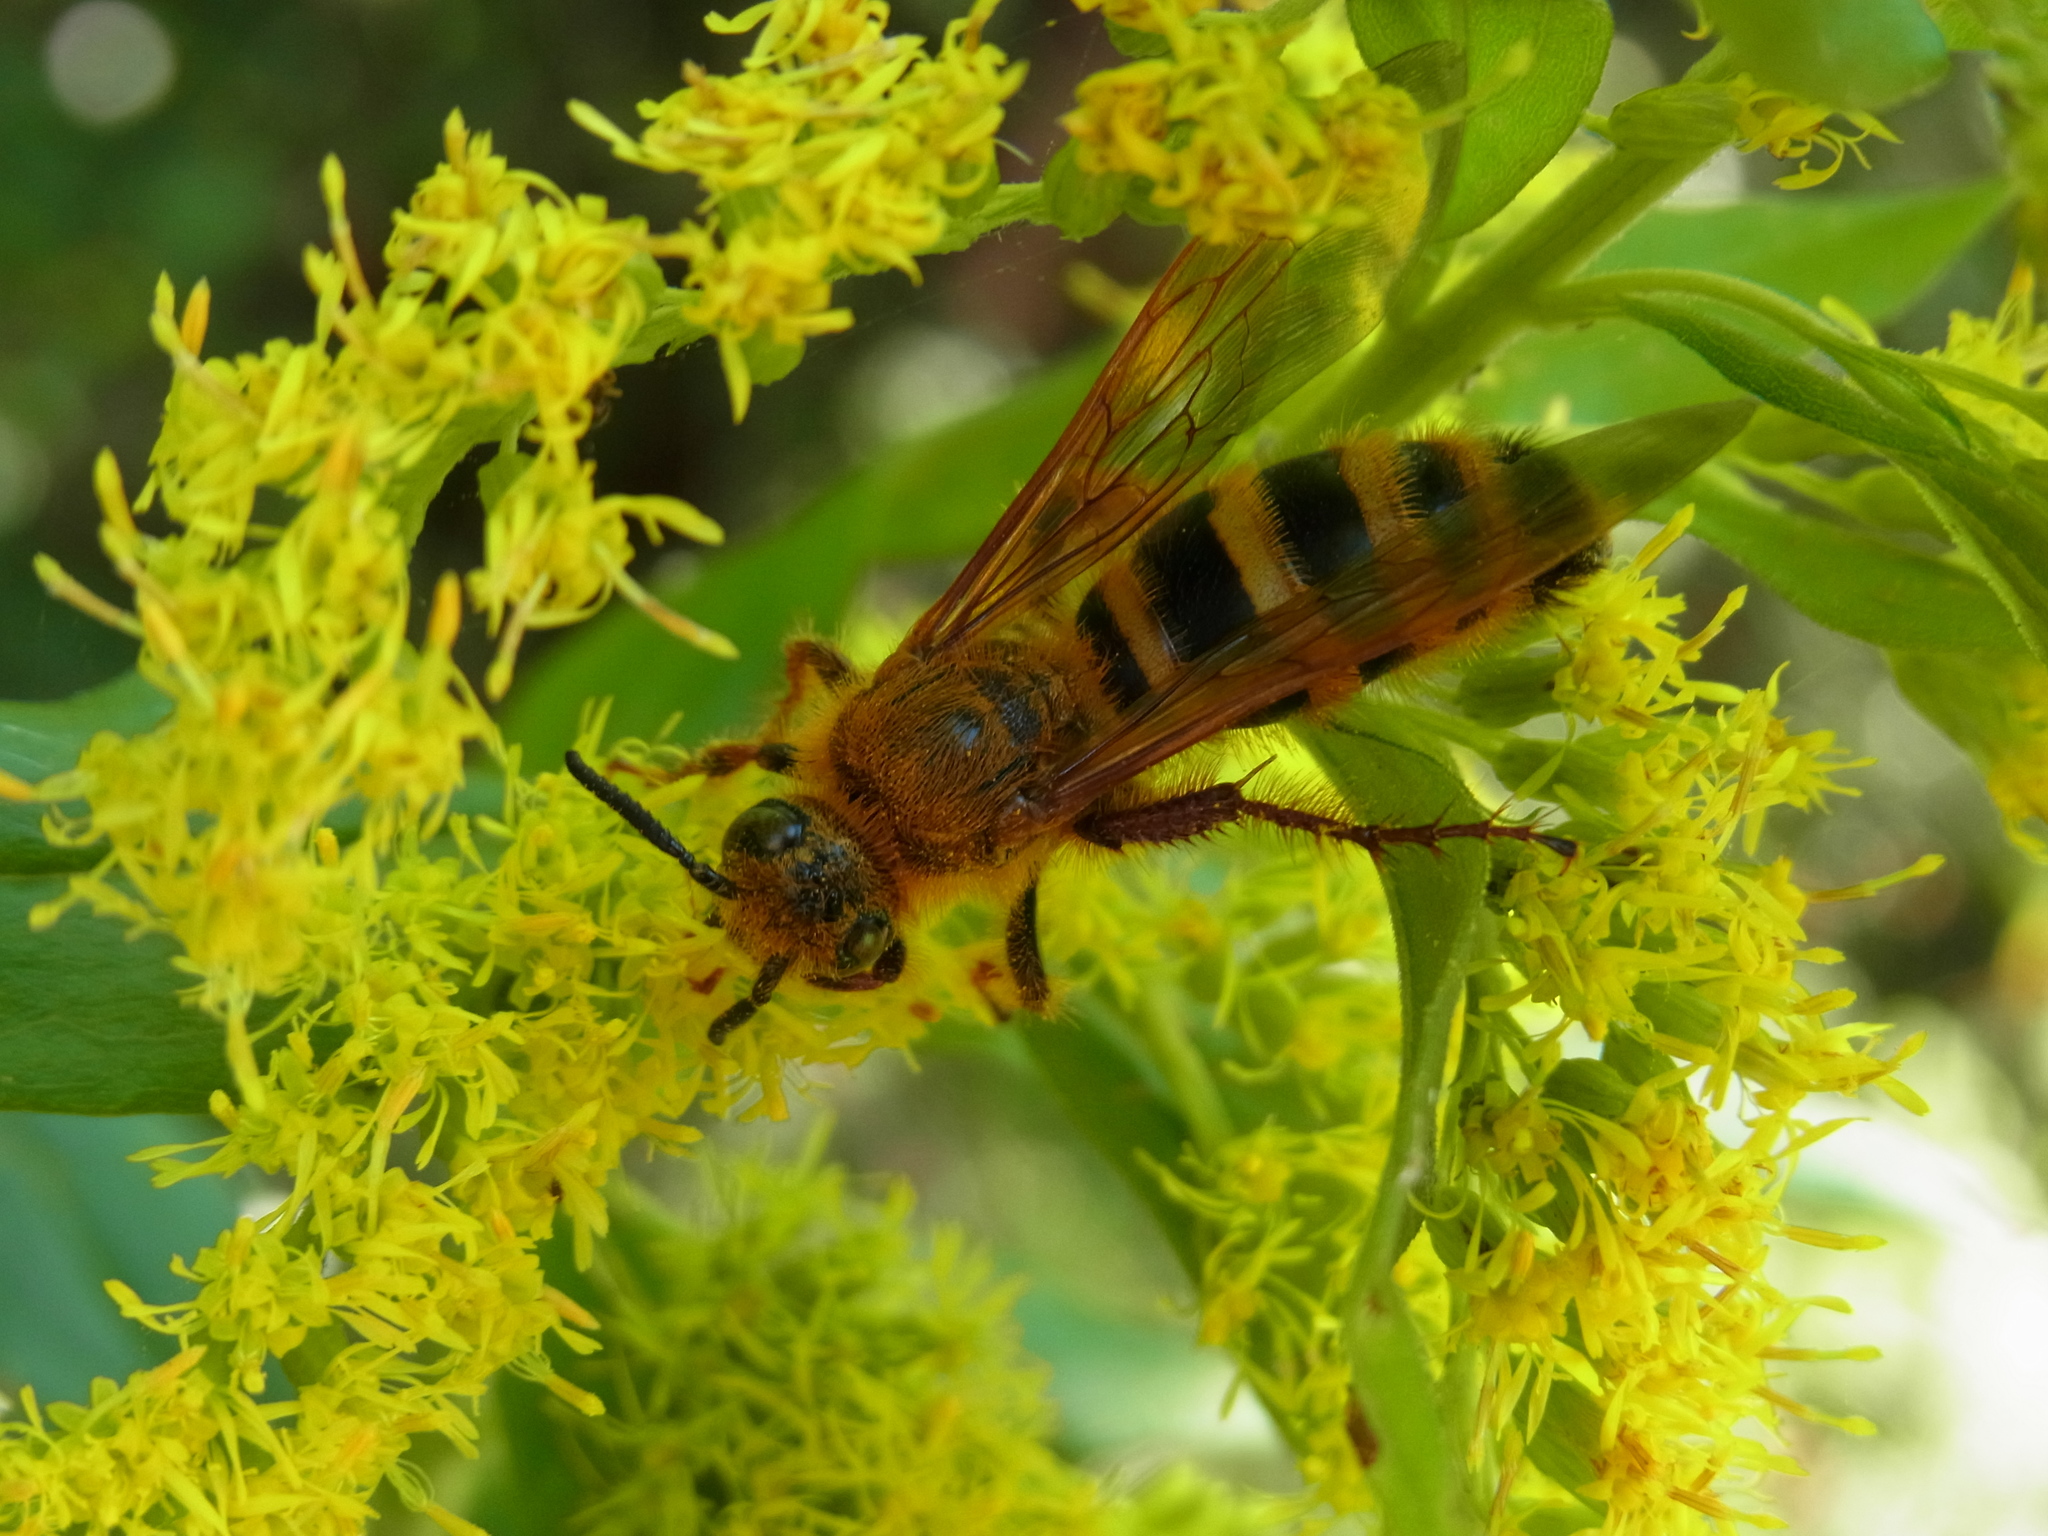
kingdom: Animalia
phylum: Arthropoda
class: Insecta
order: Hymenoptera
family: Scoliidae
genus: Megacampsomeris
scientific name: Megacampsomeris
